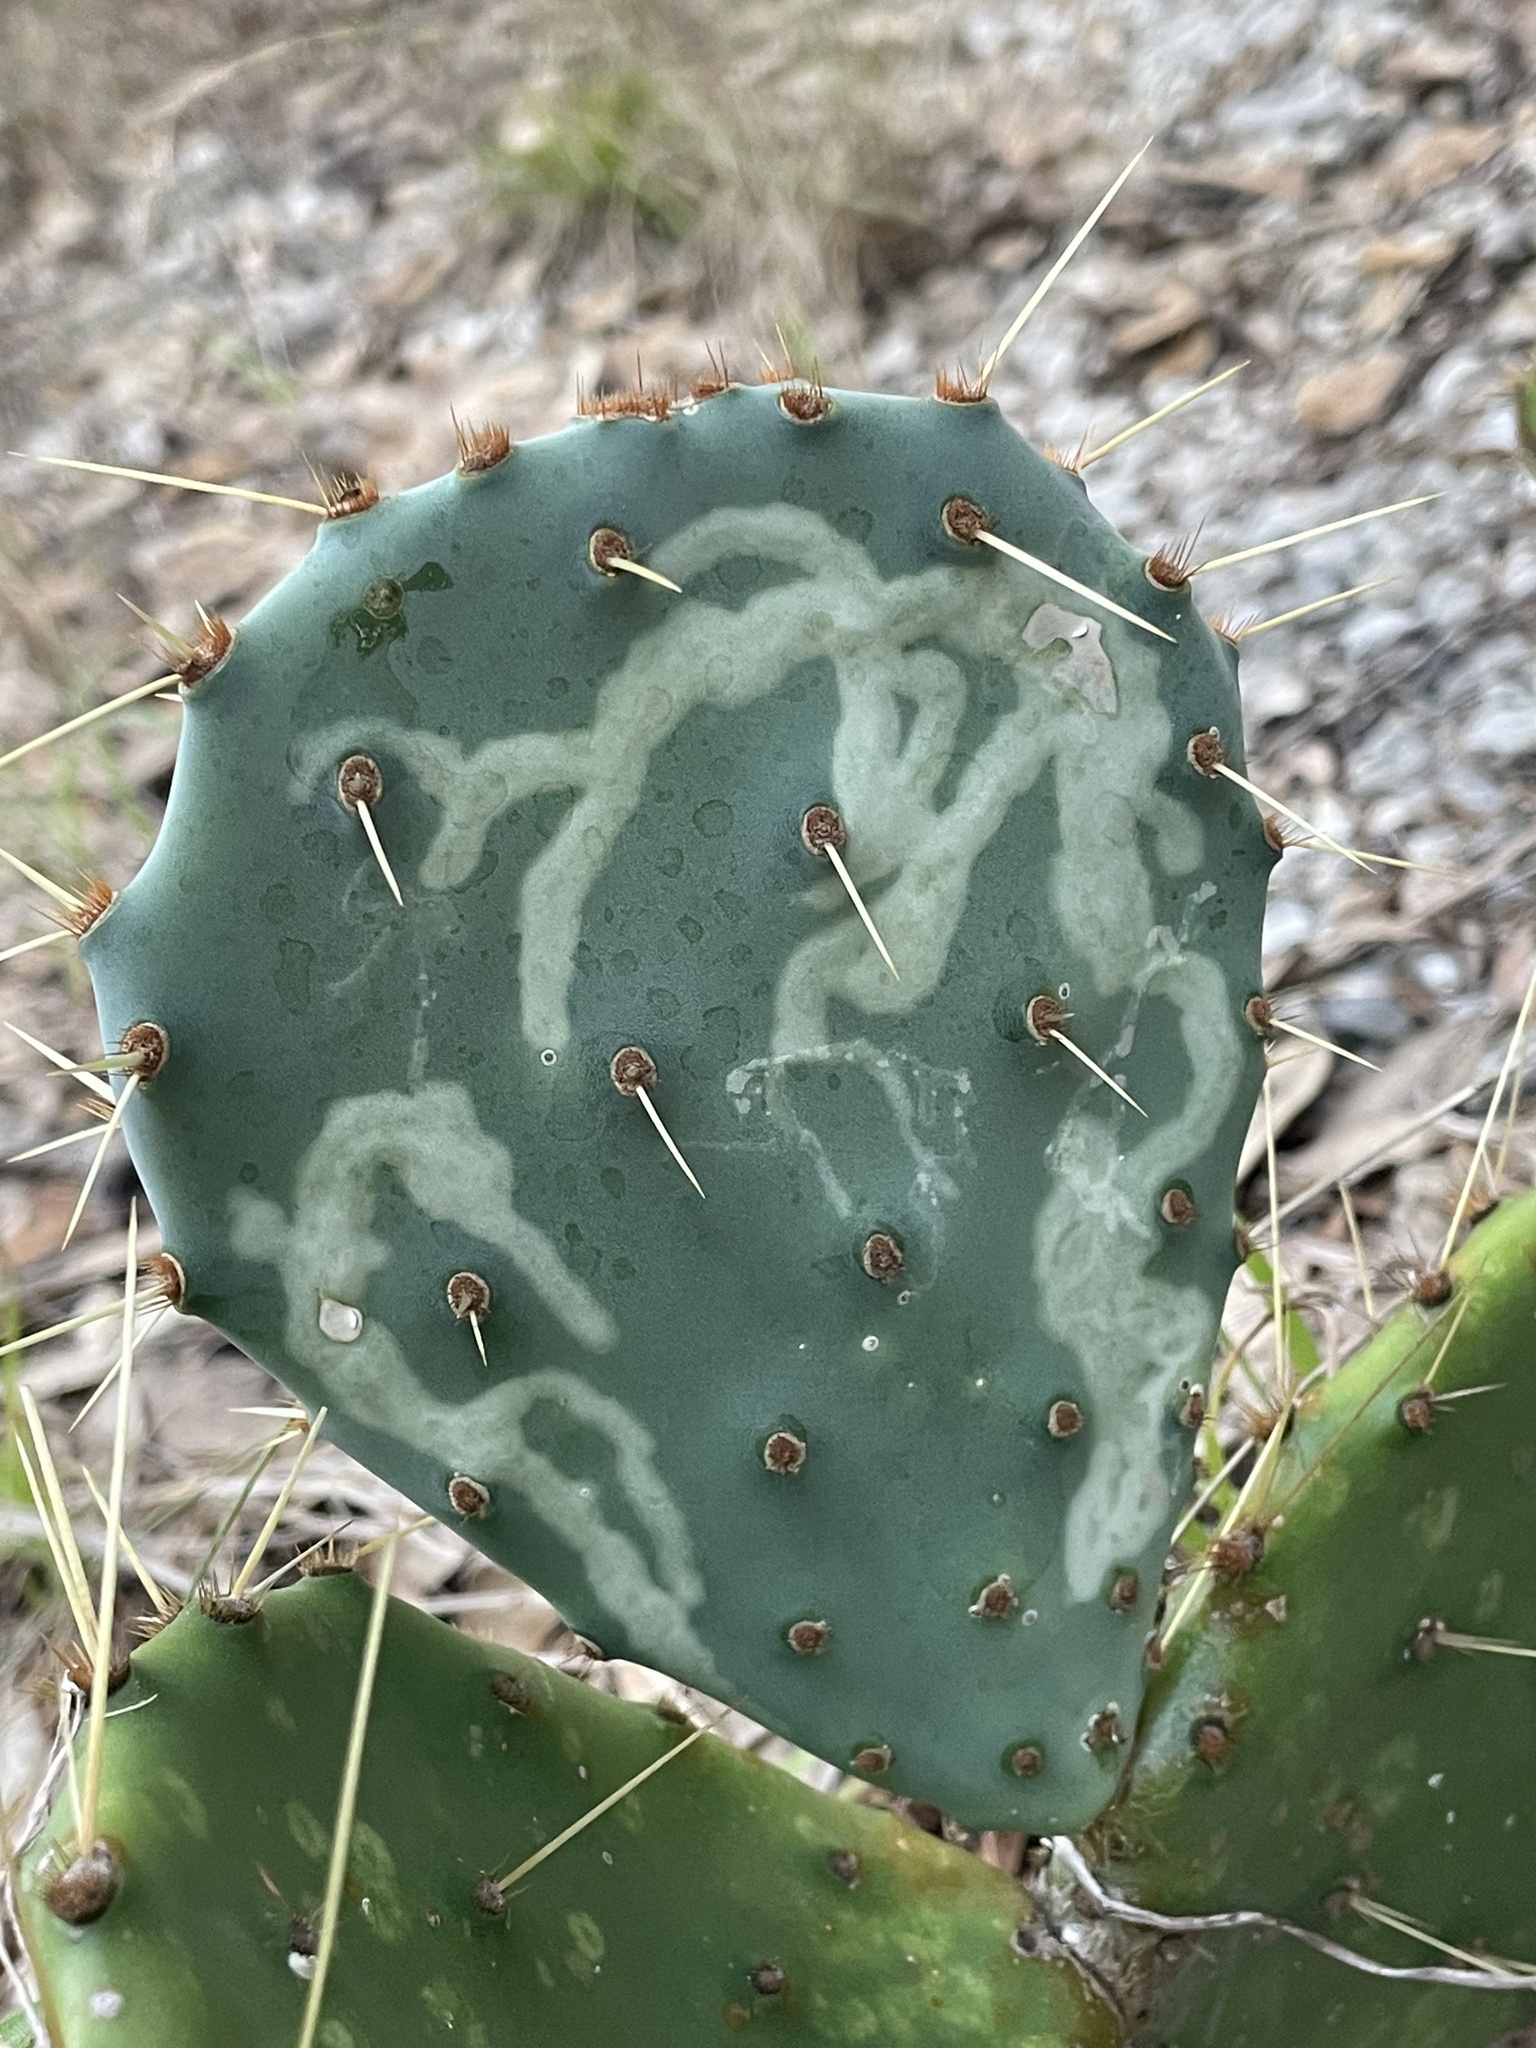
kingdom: Animalia
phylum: Arthropoda
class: Insecta
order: Lepidoptera
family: Gracillariidae
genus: Marmara
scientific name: Marmara opuntiella
